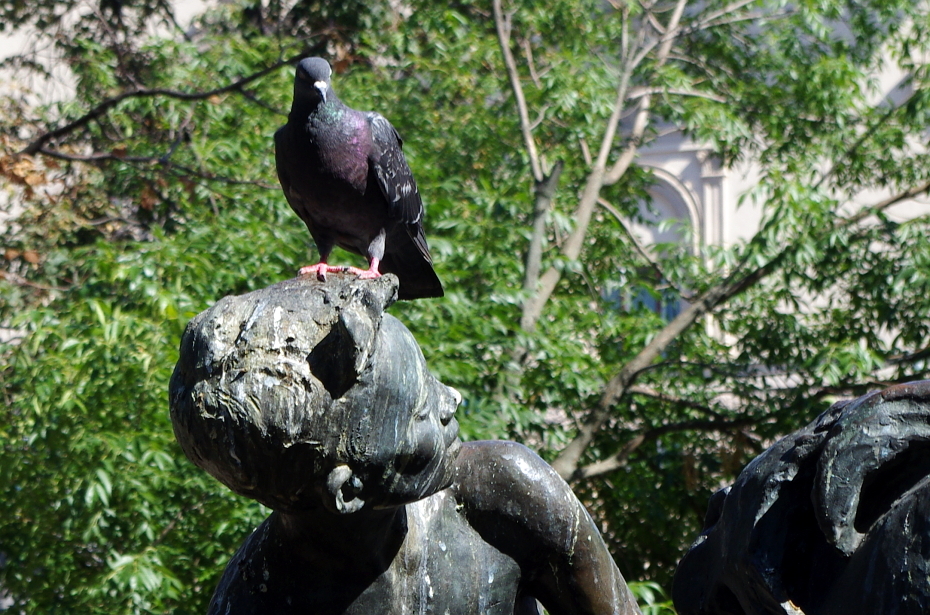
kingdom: Animalia
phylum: Chordata
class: Aves
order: Columbiformes
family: Columbidae
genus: Columba
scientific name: Columba livia
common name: Rock pigeon
